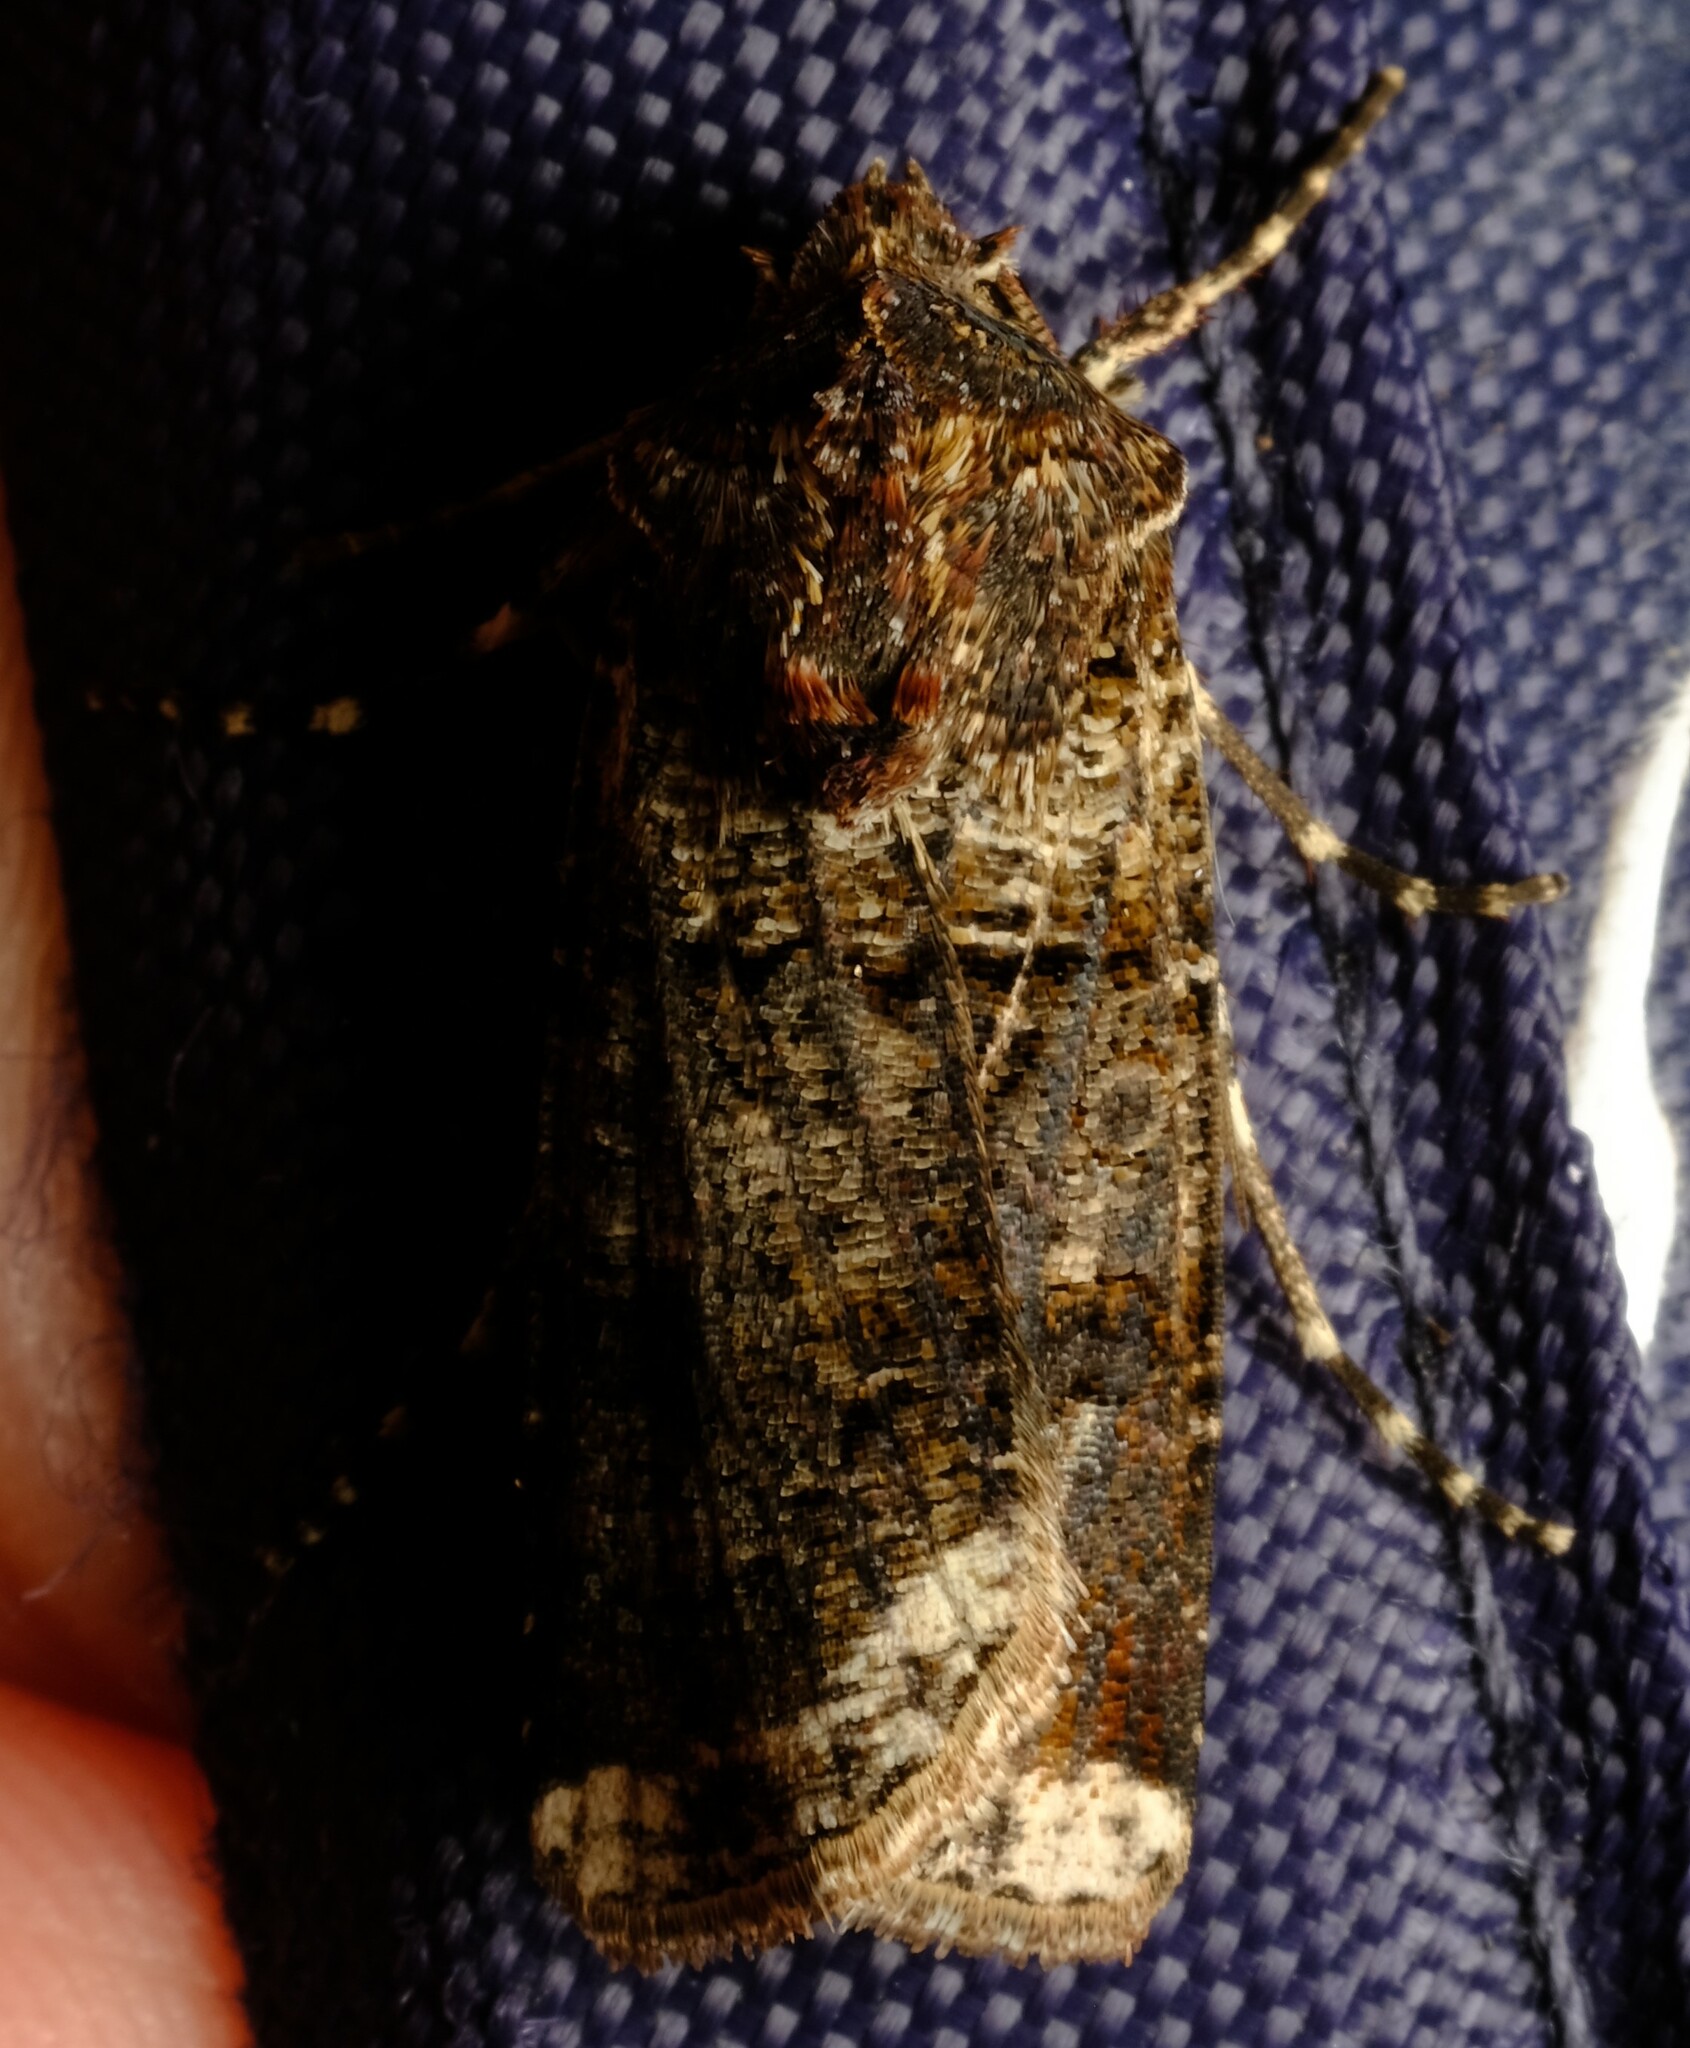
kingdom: Animalia
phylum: Arthropoda
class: Insecta
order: Lepidoptera
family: Noctuidae
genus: Agrotis
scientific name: Agrotis porphyricollis
